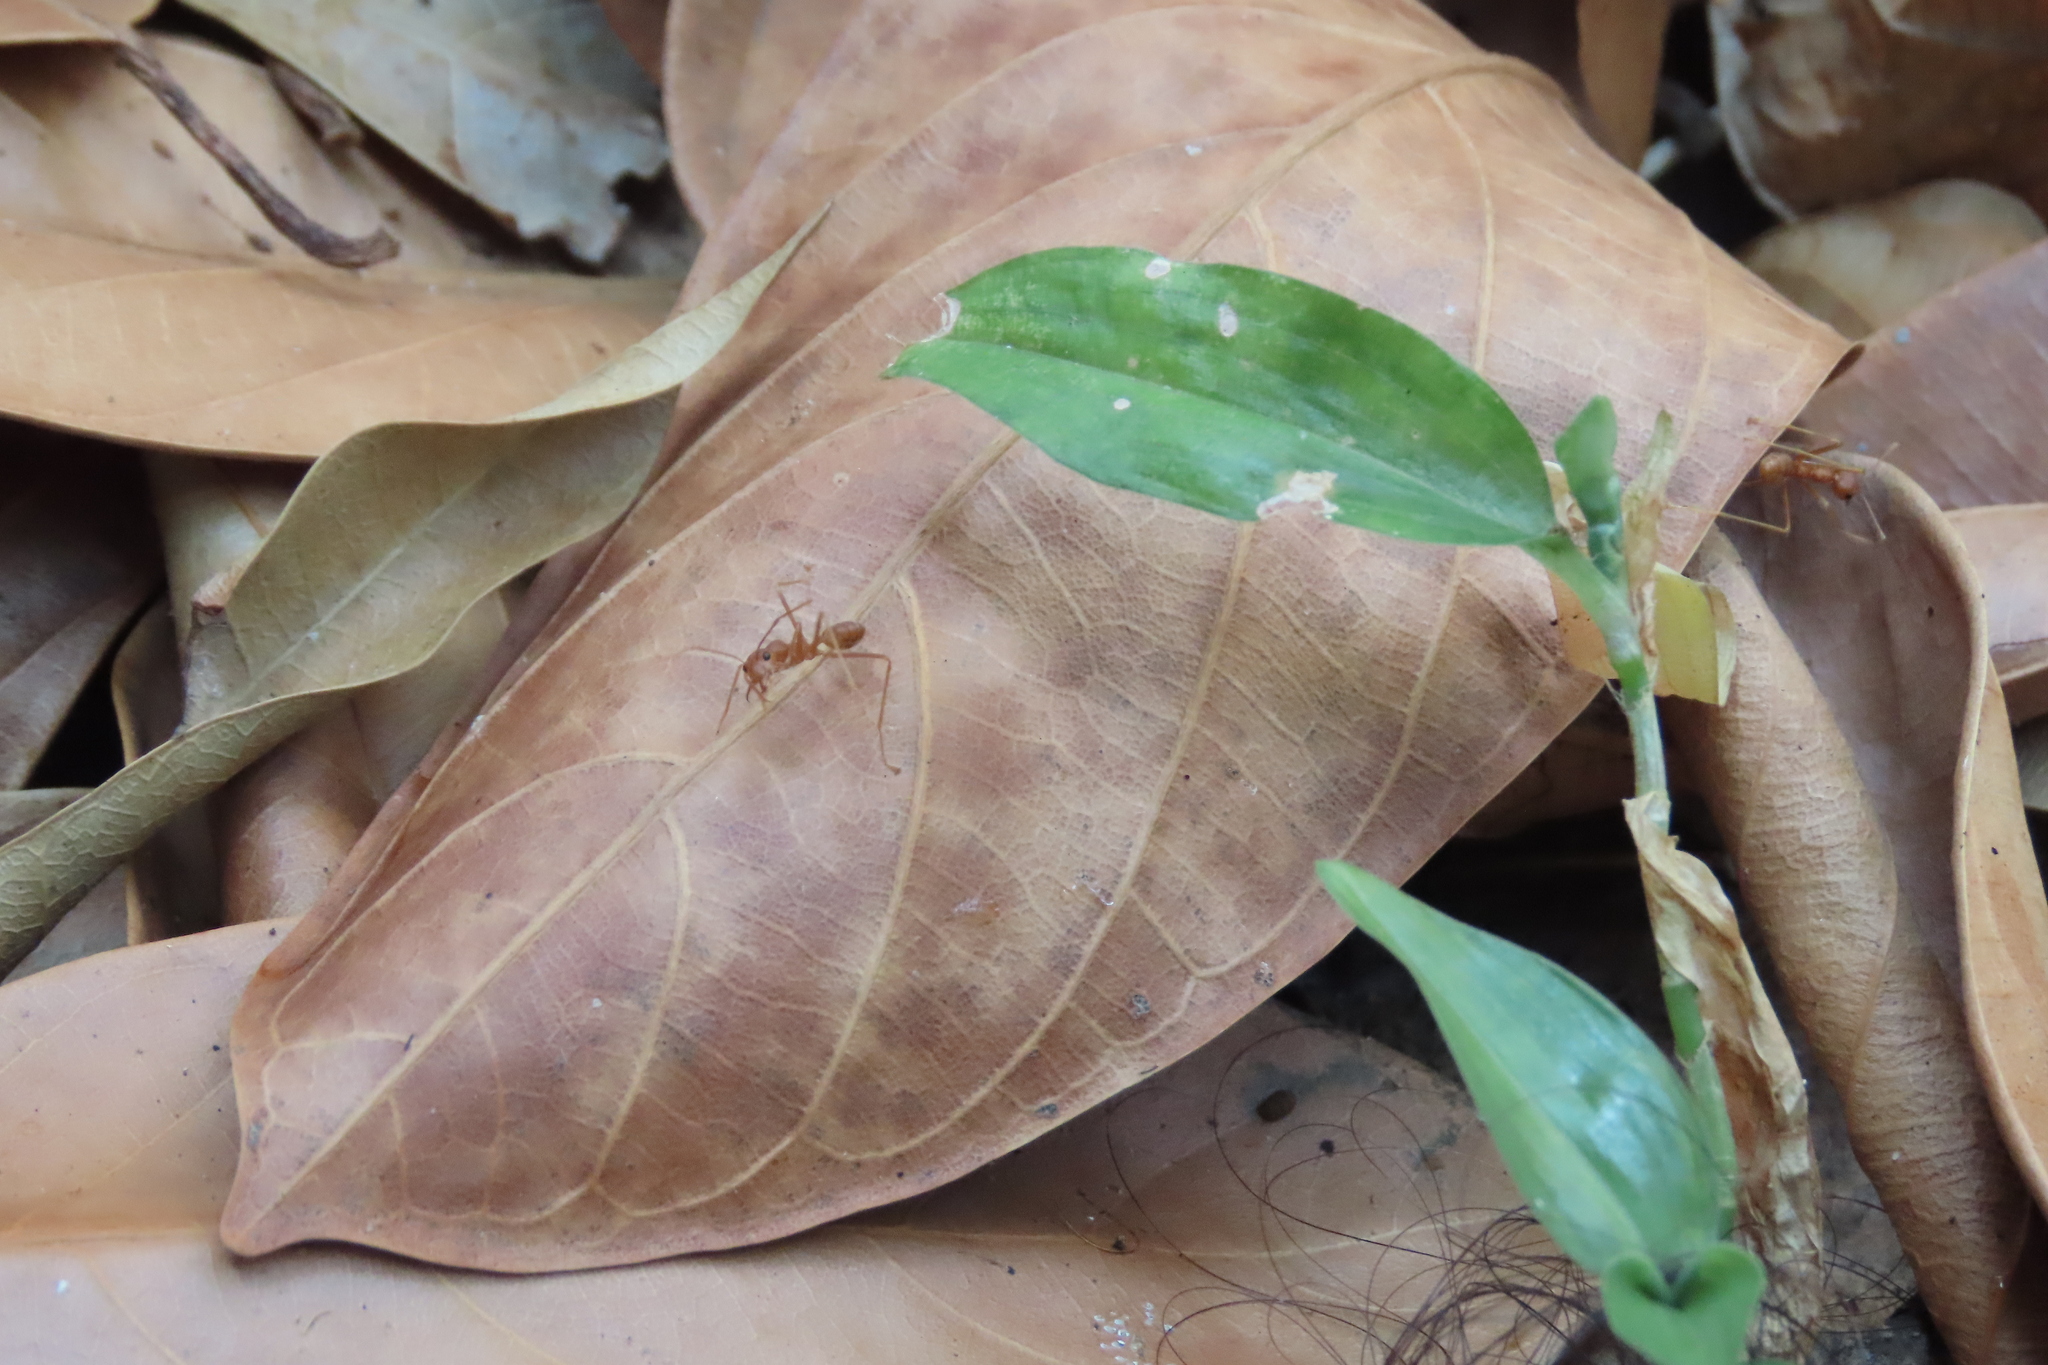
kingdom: Animalia
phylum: Arthropoda
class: Insecta
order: Hymenoptera
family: Formicidae
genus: Oecophylla
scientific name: Oecophylla smaragdina
